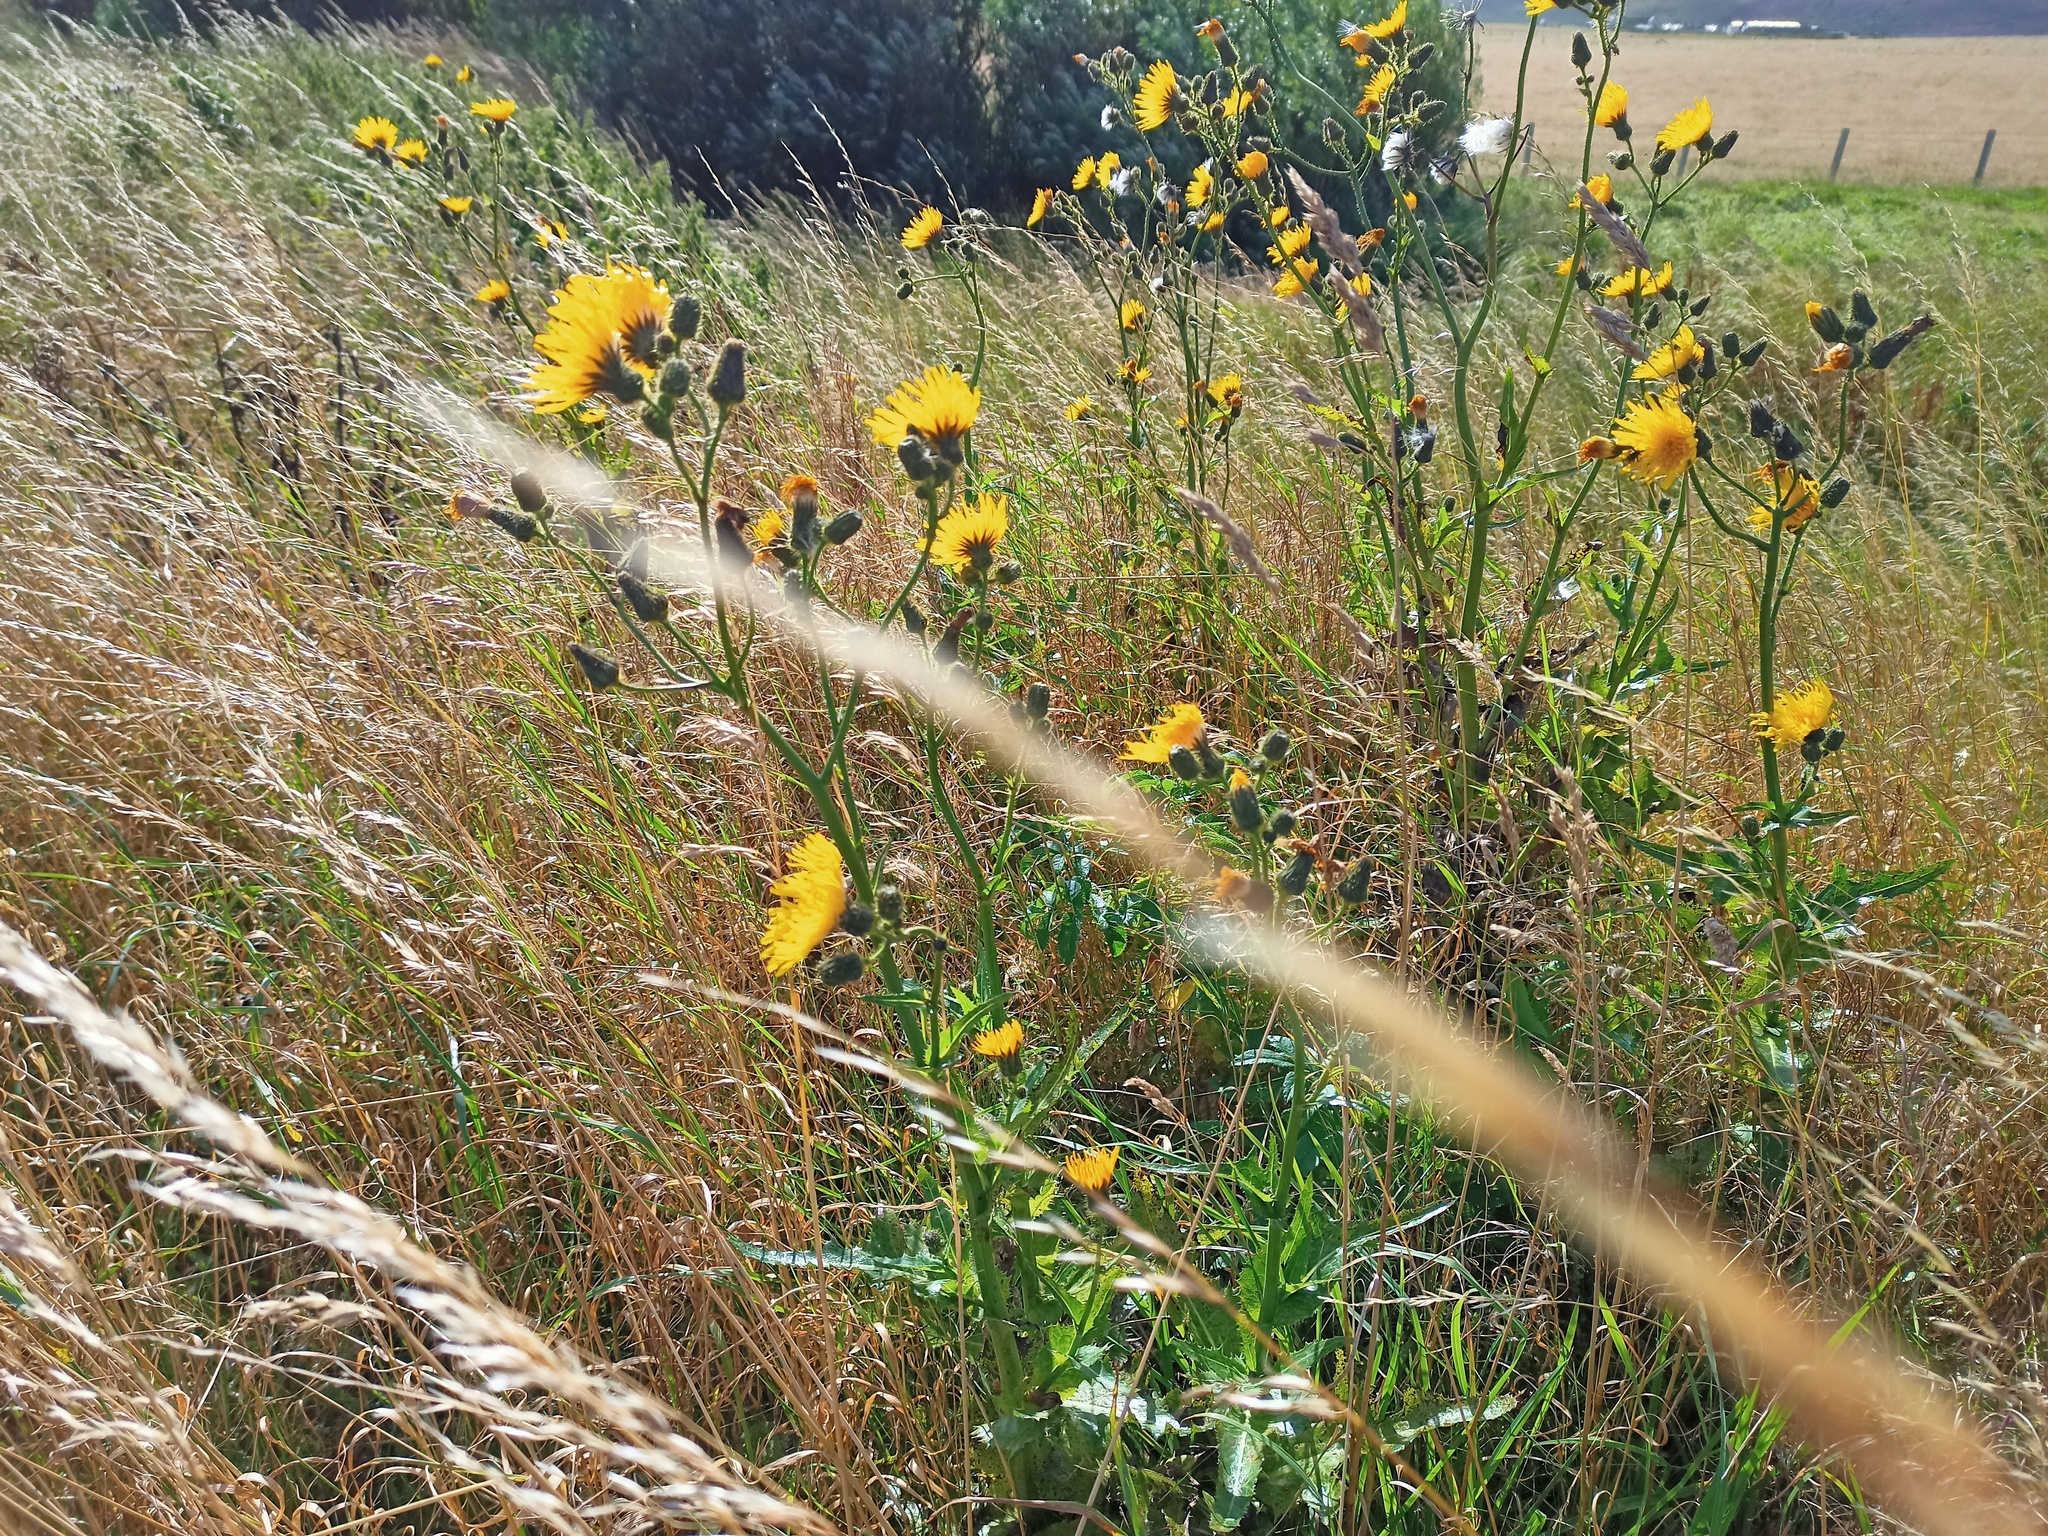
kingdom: Plantae
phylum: Tracheophyta
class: Magnoliopsida
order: Asterales
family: Asteraceae
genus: Sonchus
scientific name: Sonchus arvensis
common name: Perennial sow-thistle
